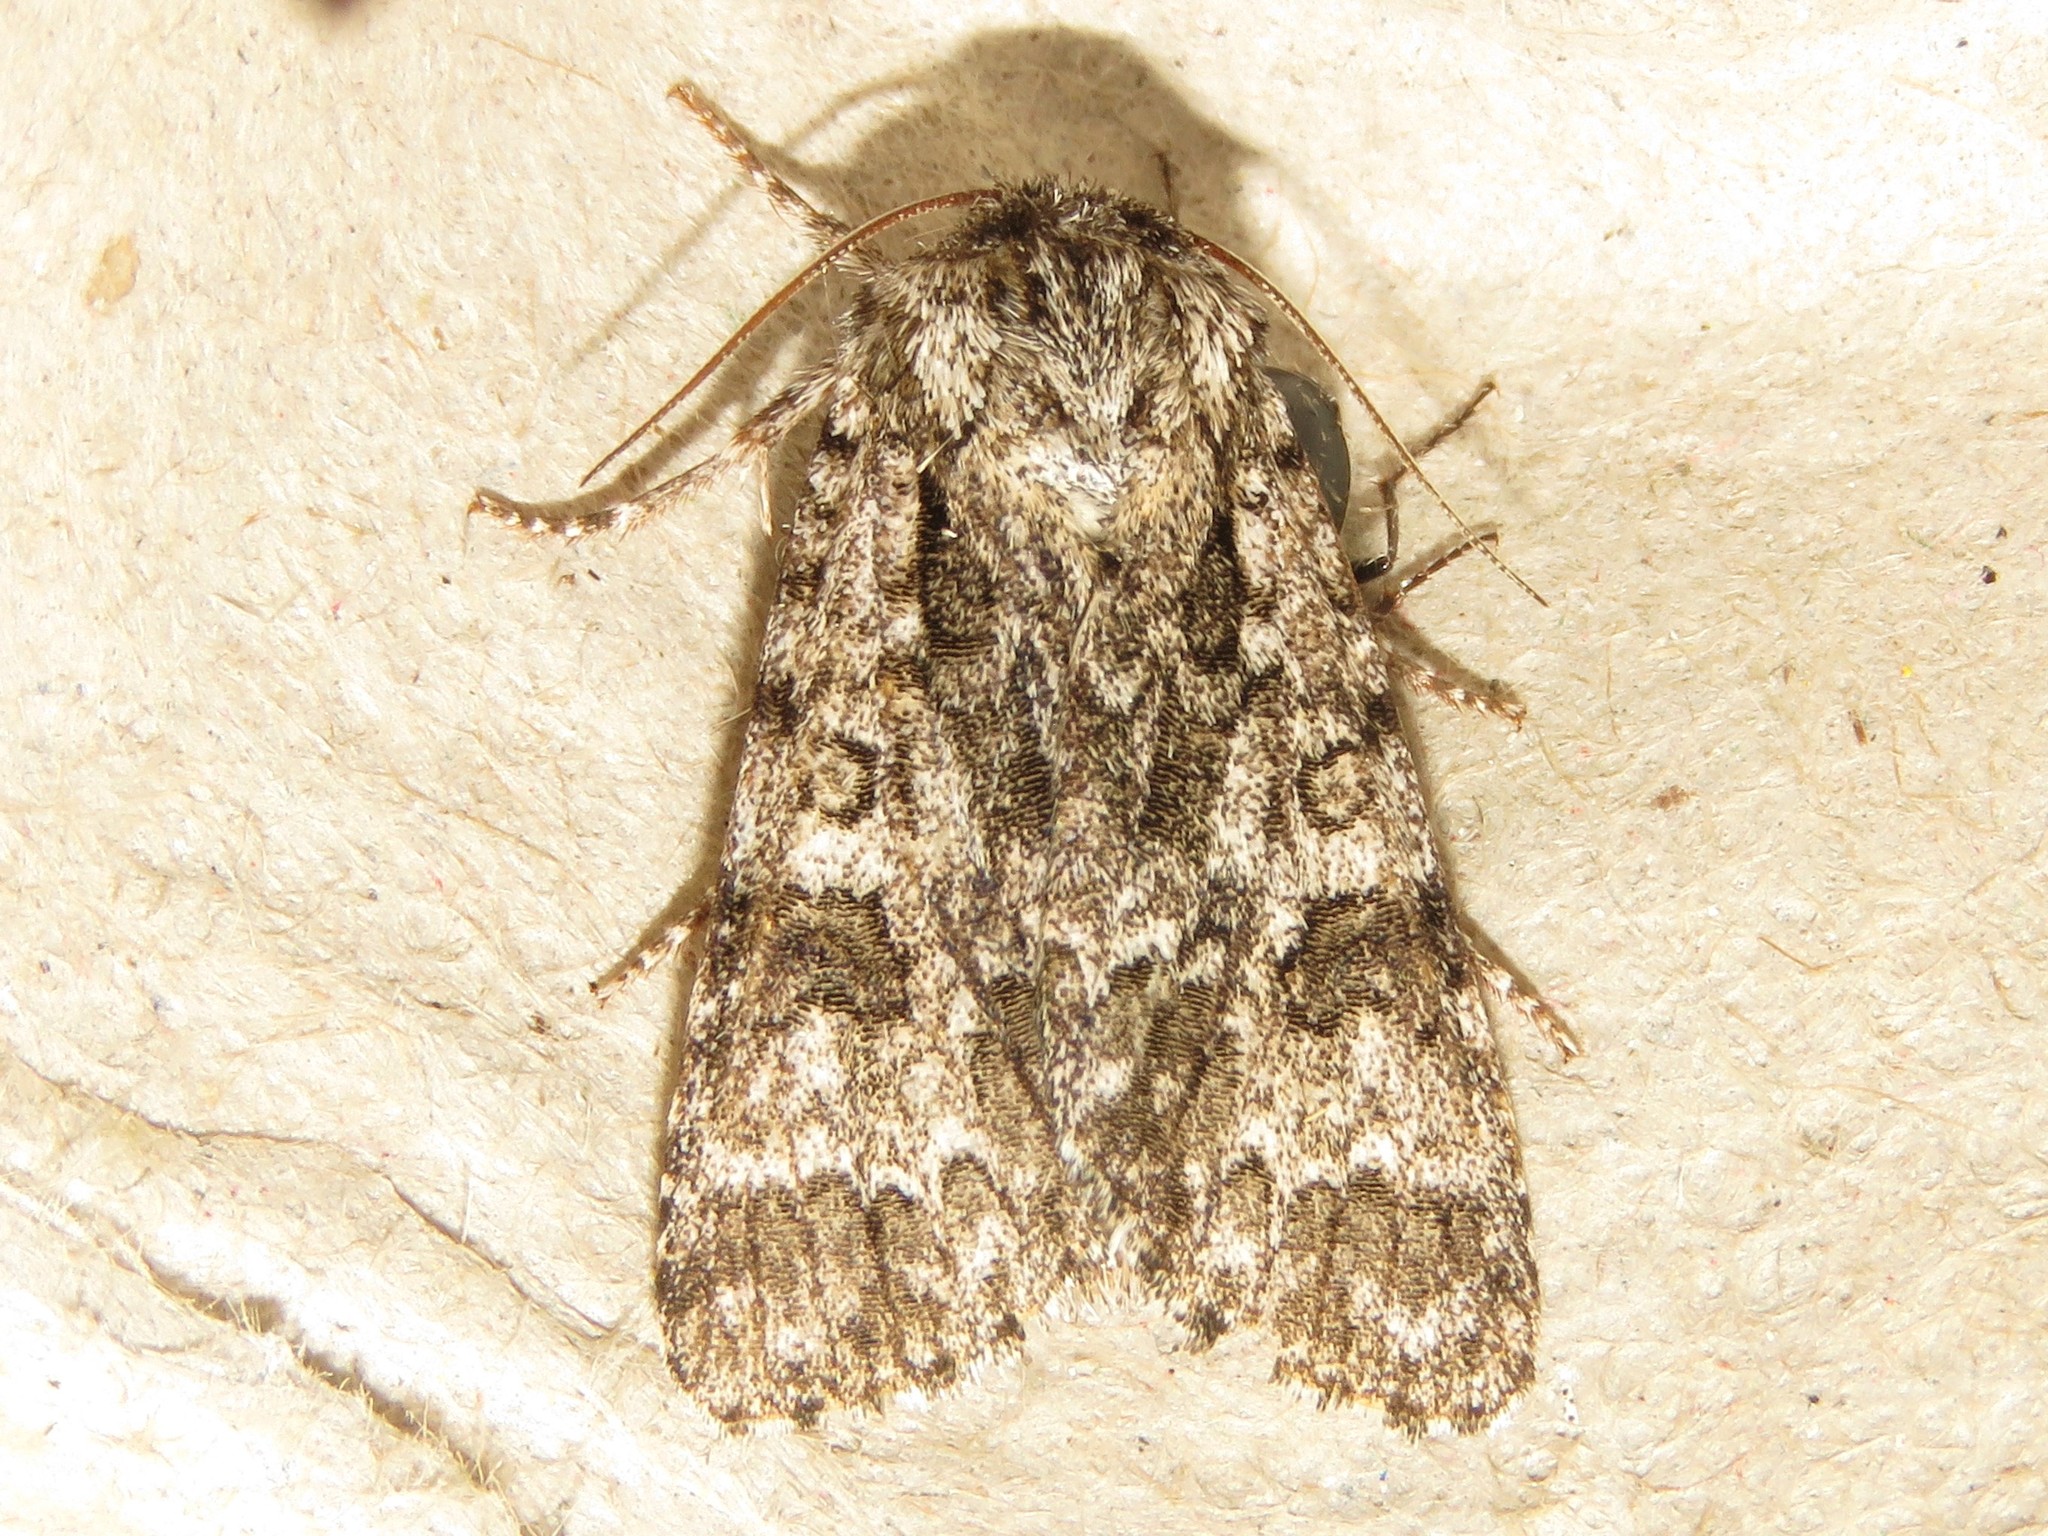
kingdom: Animalia
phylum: Arthropoda
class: Insecta
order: Lepidoptera
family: Noctuidae
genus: Acronicta
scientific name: Acronicta impressa
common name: Impressed dagger
